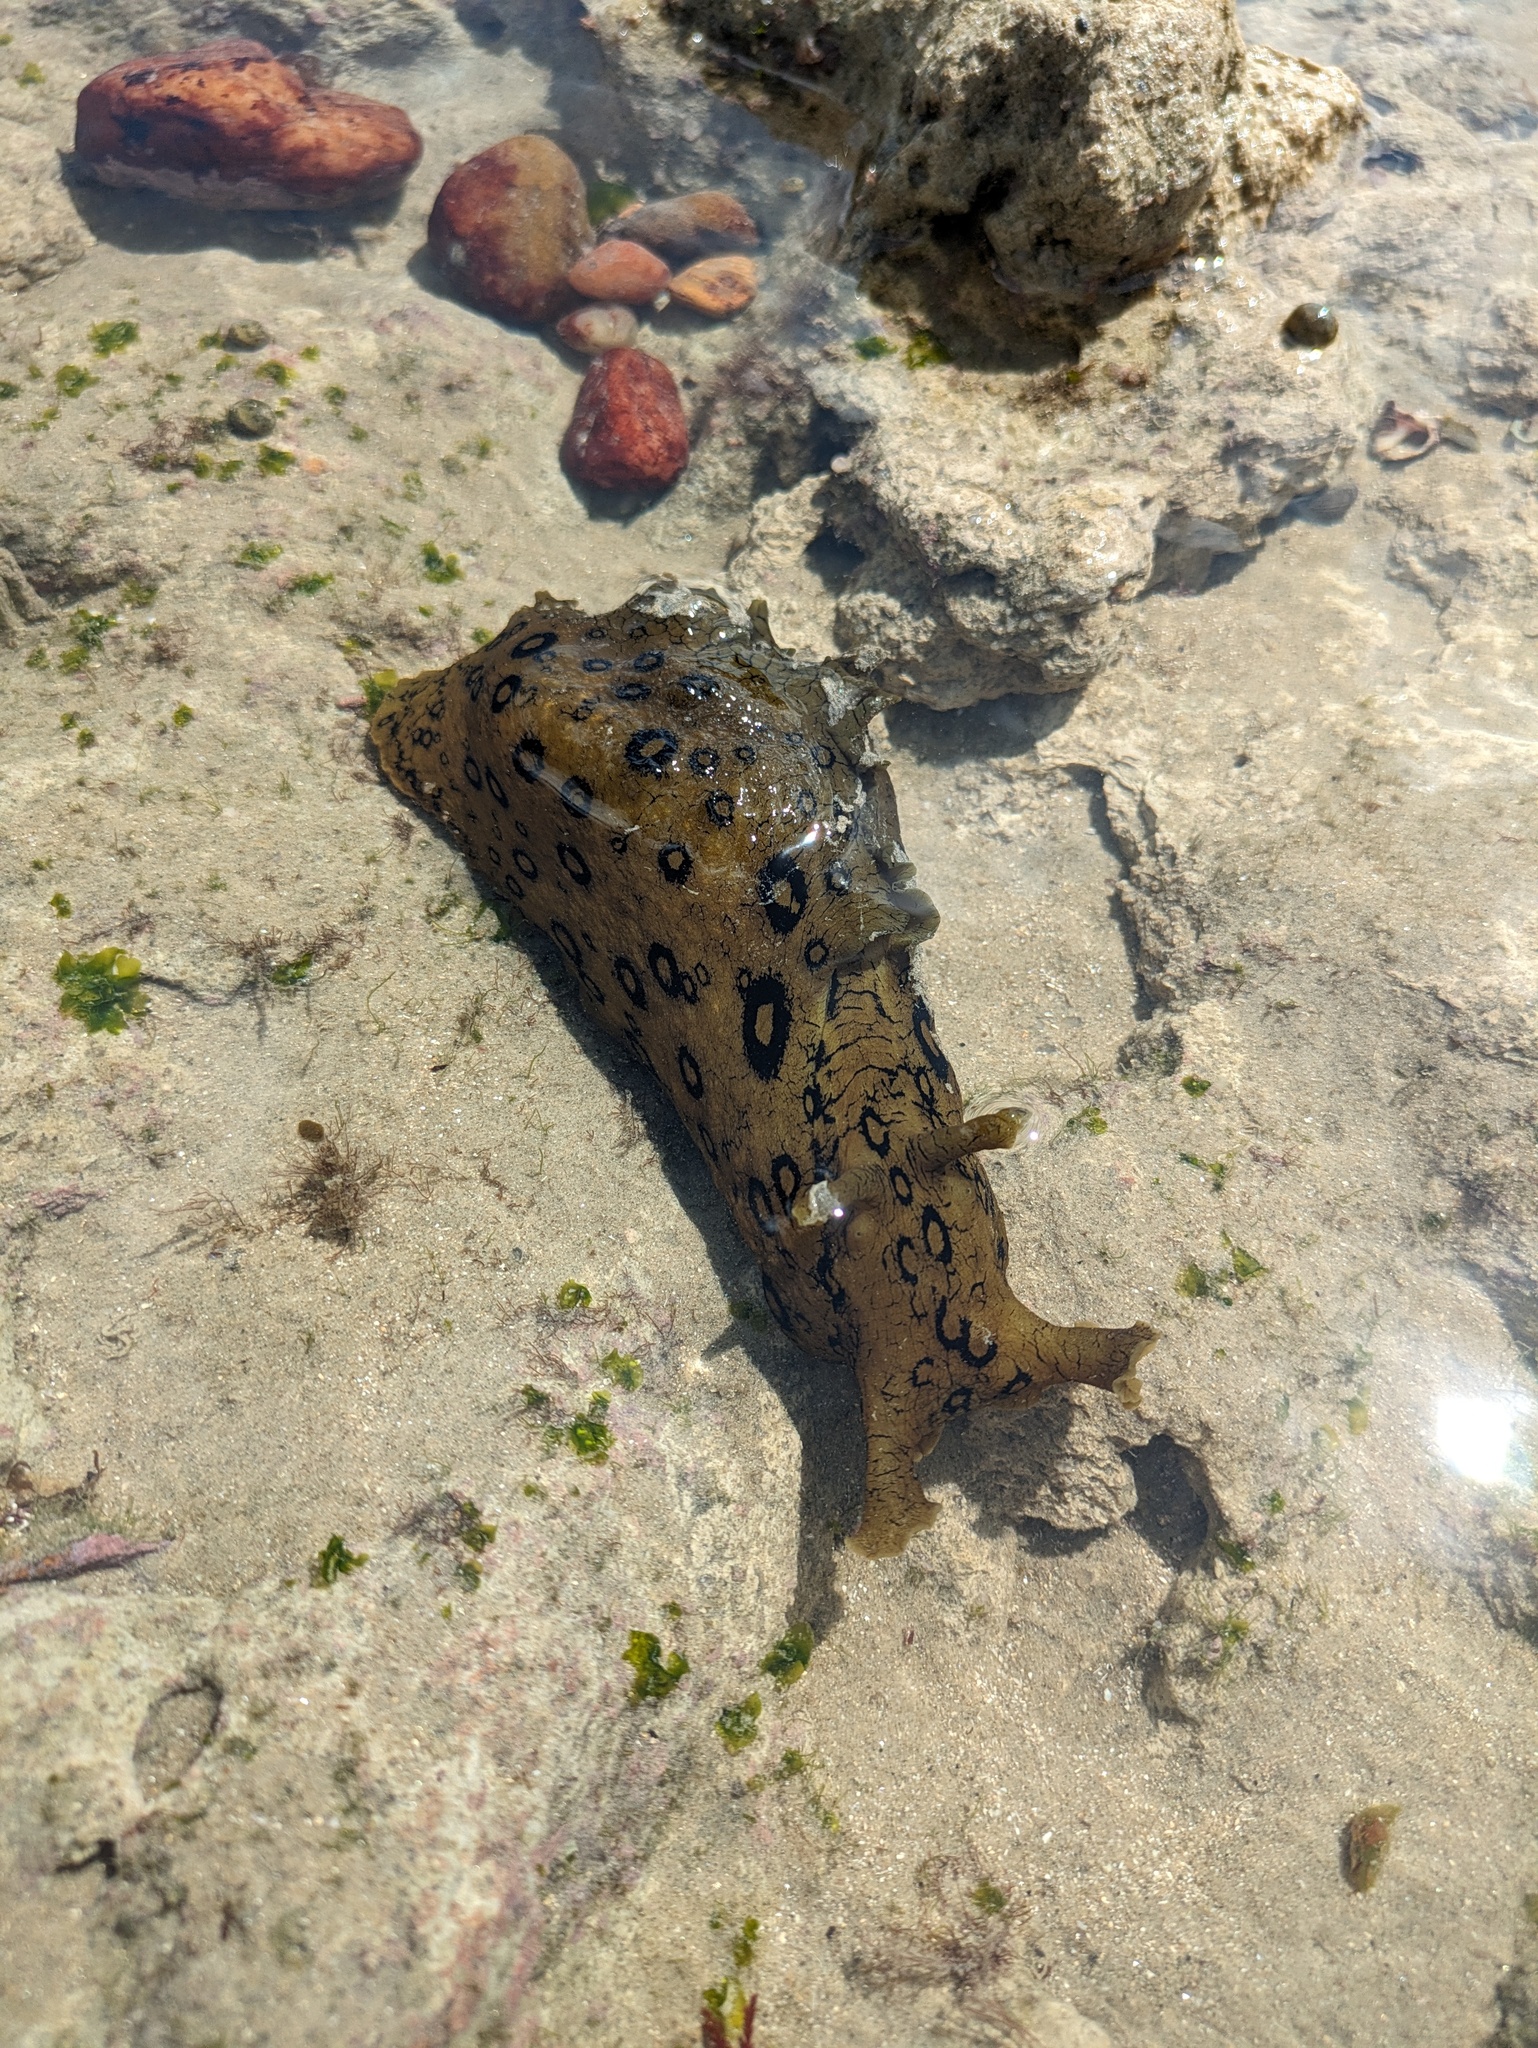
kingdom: Animalia
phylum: Mollusca
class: Gastropoda
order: Aplysiida
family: Aplysiidae
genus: Aplysia
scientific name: Aplysia dactylomela
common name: Large-spotted sea hare
